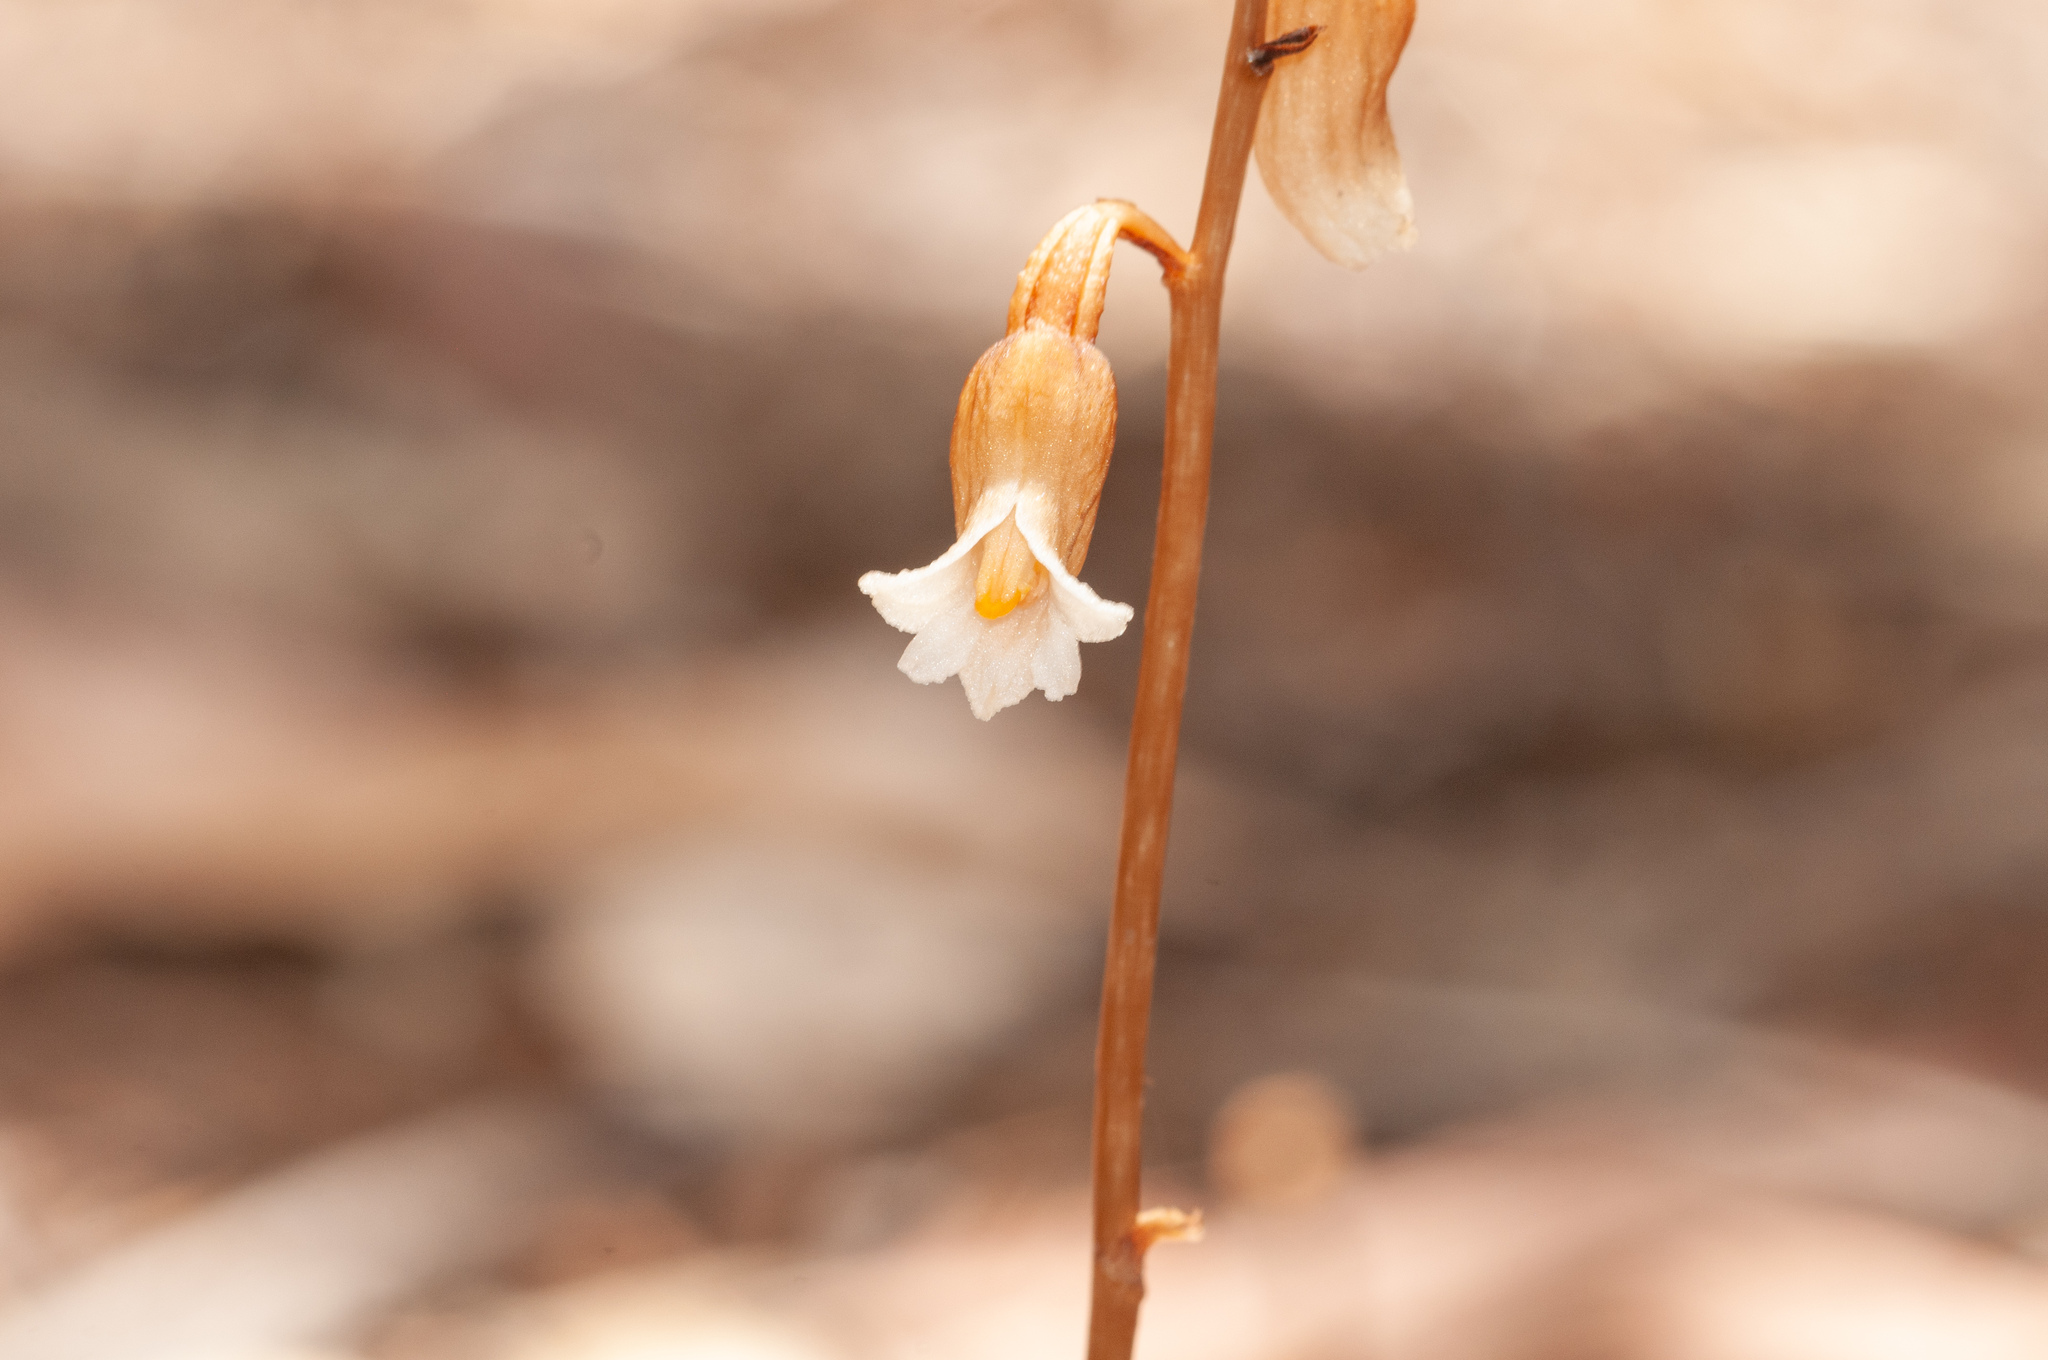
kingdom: Plantae
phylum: Tracheophyta
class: Liliopsida
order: Asparagales
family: Orchidaceae
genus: Gastrodia
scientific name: Gastrodia sesamoides
